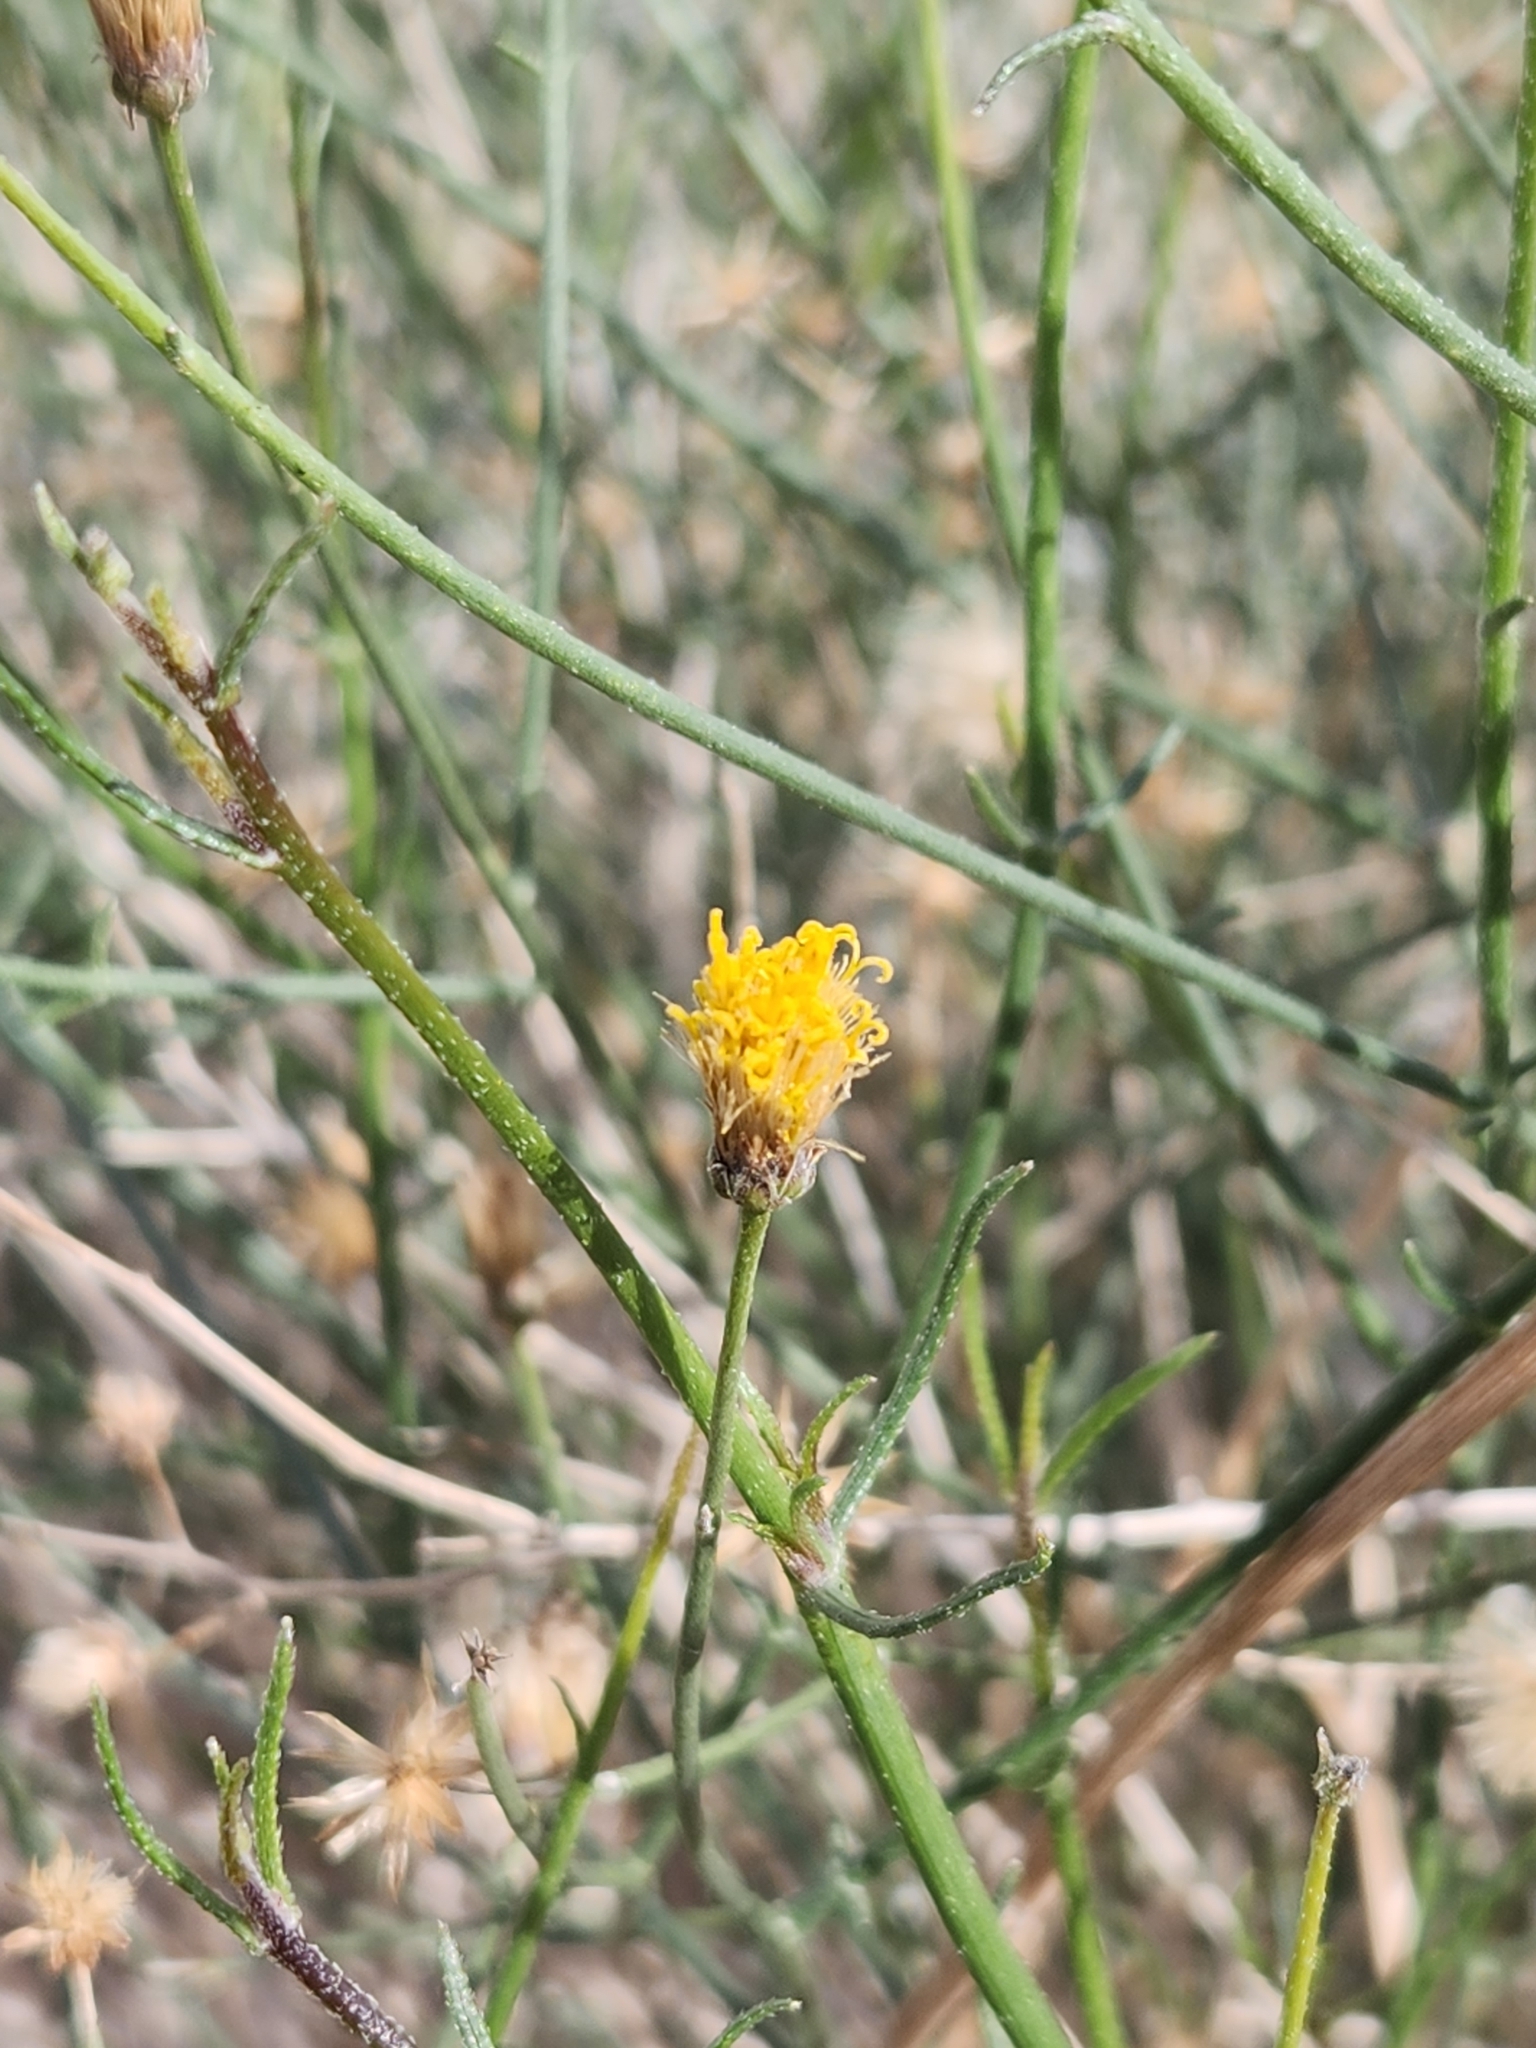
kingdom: Plantae
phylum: Tracheophyta
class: Magnoliopsida
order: Asterales
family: Asteraceae
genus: Bebbia
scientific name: Bebbia juncea
